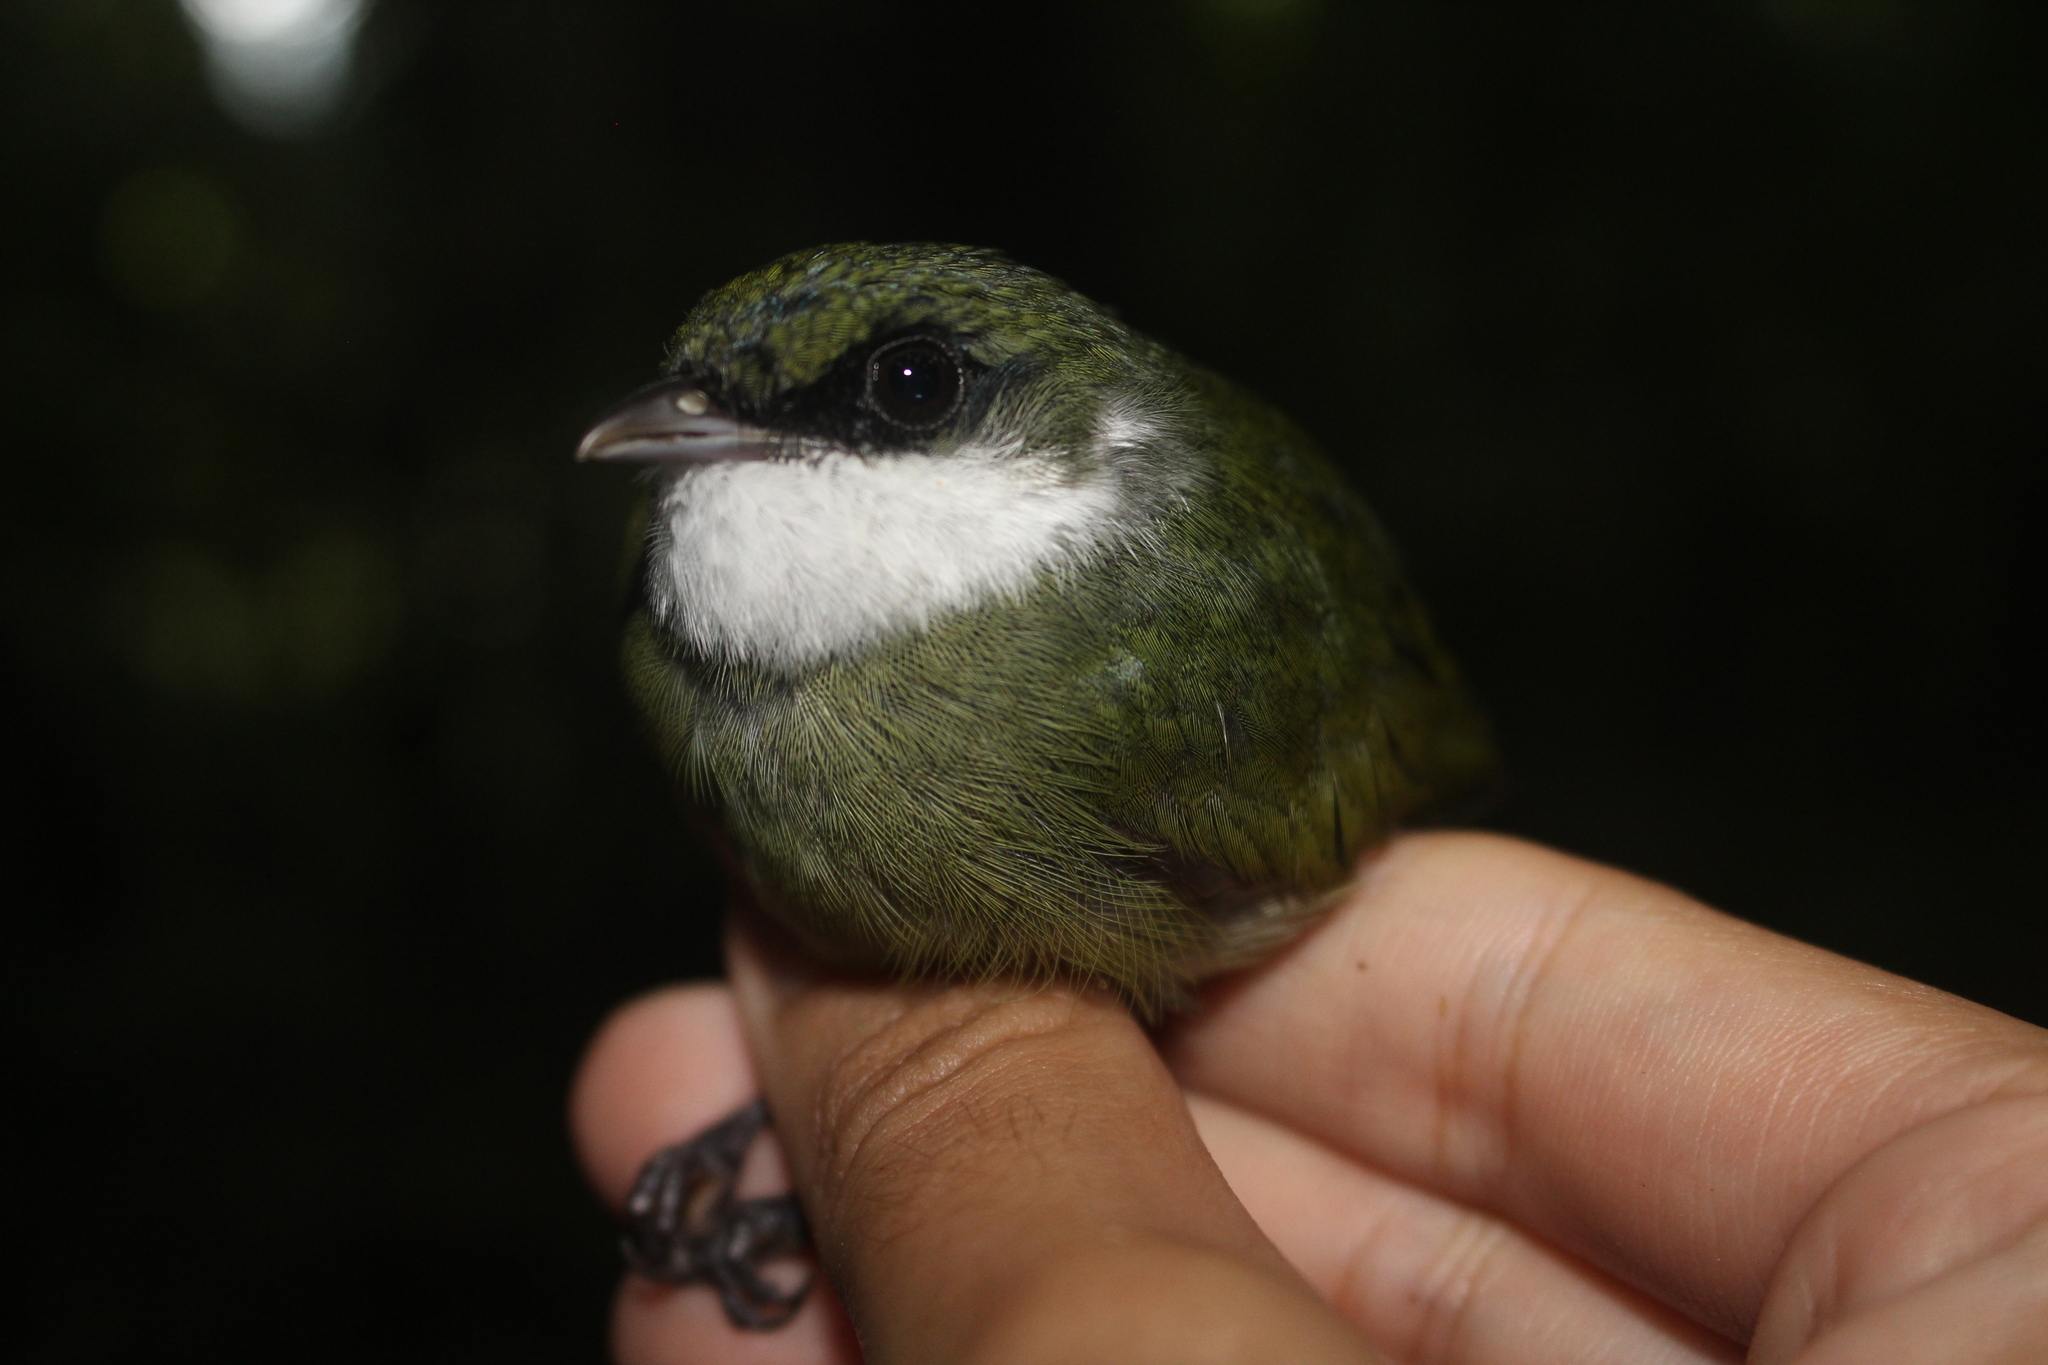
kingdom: Animalia
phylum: Chordata
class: Aves
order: Passeriformes
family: Pipridae
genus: Corapipo
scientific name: Corapipo altera
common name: White-ruffed manakin
